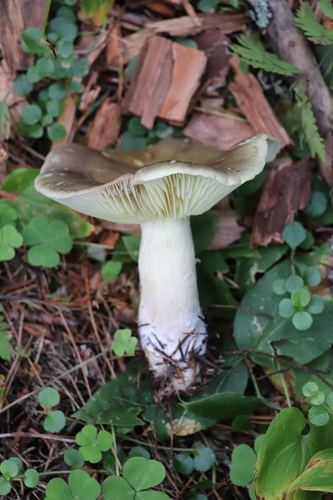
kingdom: Fungi
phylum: Basidiomycota
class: Agaricomycetes
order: Agaricales
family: Tricholomataceae
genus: Tricholoma
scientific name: Tricholoma rapipes
